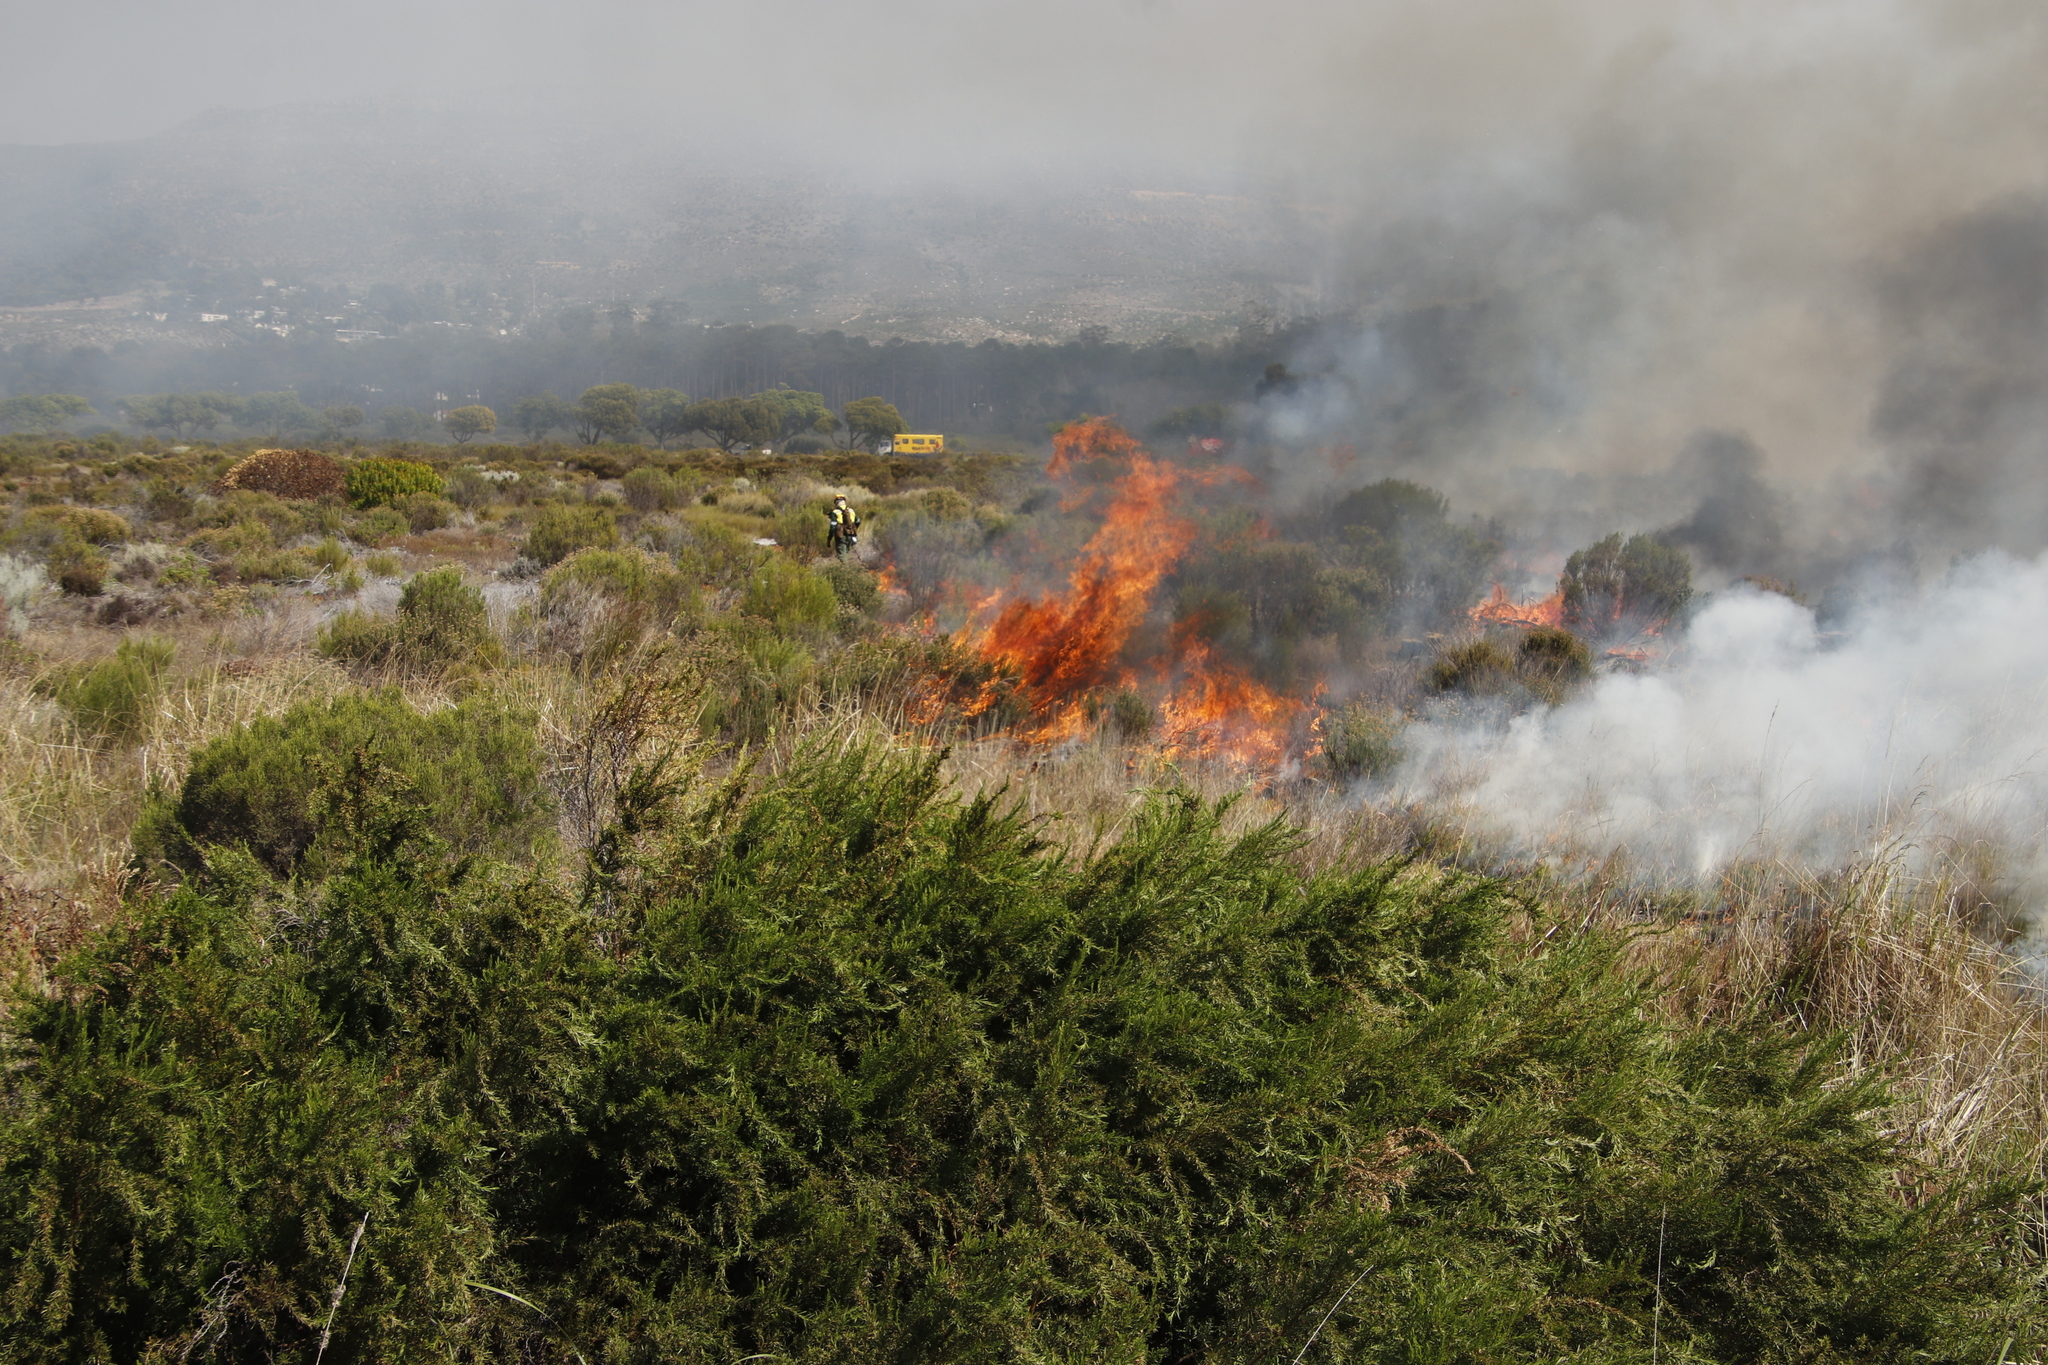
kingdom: Plantae
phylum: Tracheophyta
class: Magnoliopsida
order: Malvales
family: Thymelaeaceae
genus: Passerina
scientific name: Passerina corymbosa
